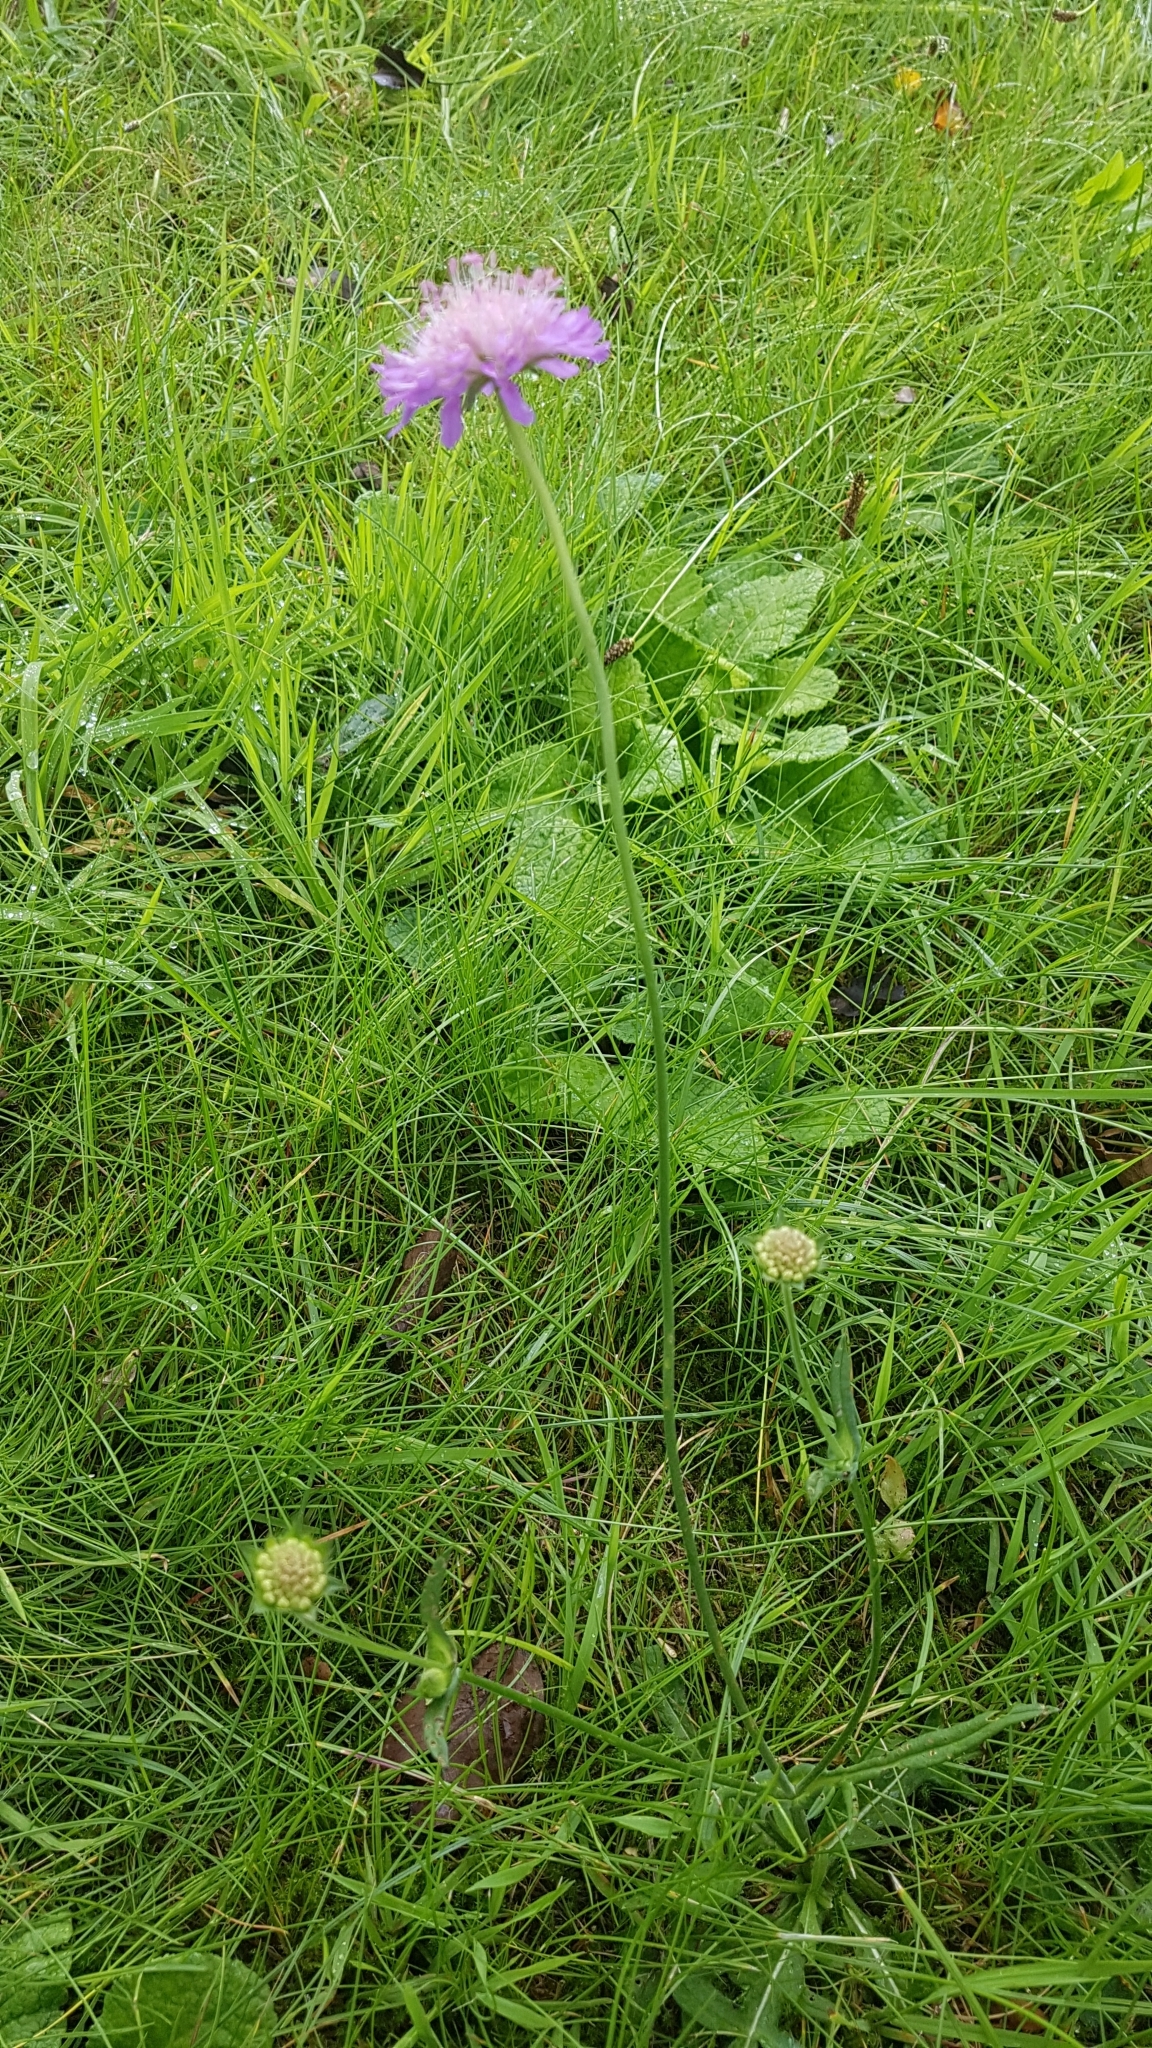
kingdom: Plantae
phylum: Tracheophyta
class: Magnoliopsida
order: Dipsacales
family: Caprifoliaceae
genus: Knautia
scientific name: Knautia arvensis
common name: Field scabiosa
